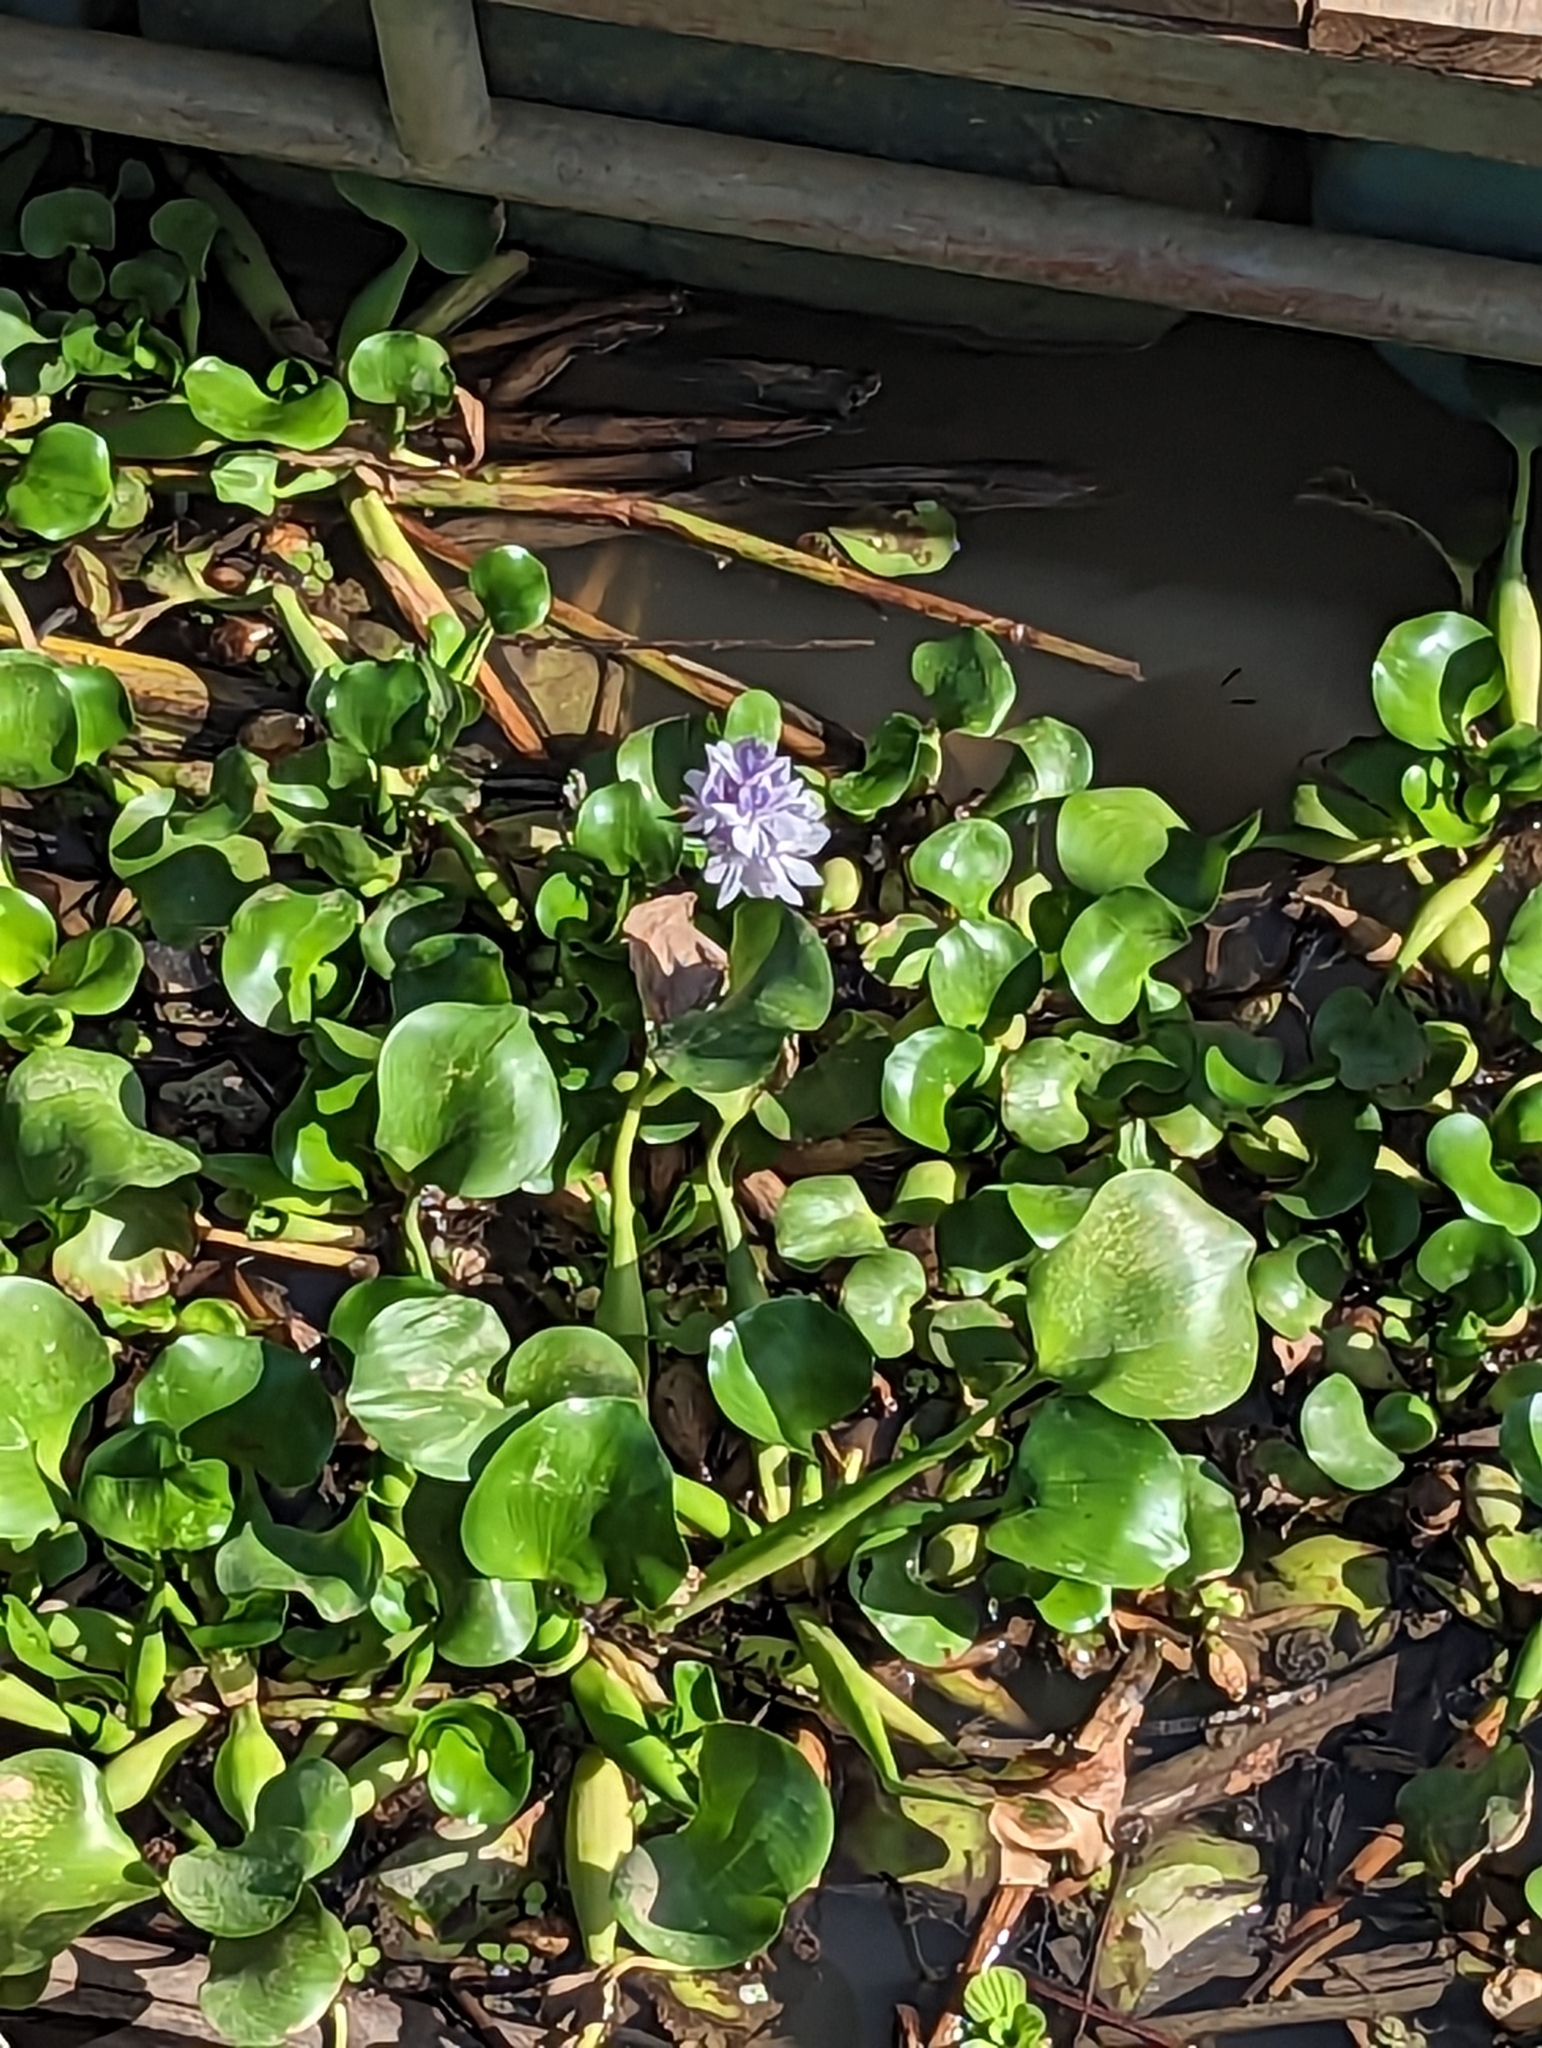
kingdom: Plantae
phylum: Tracheophyta
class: Liliopsida
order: Commelinales
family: Pontederiaceae
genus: Pontederia
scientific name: Pontederia crassipes
